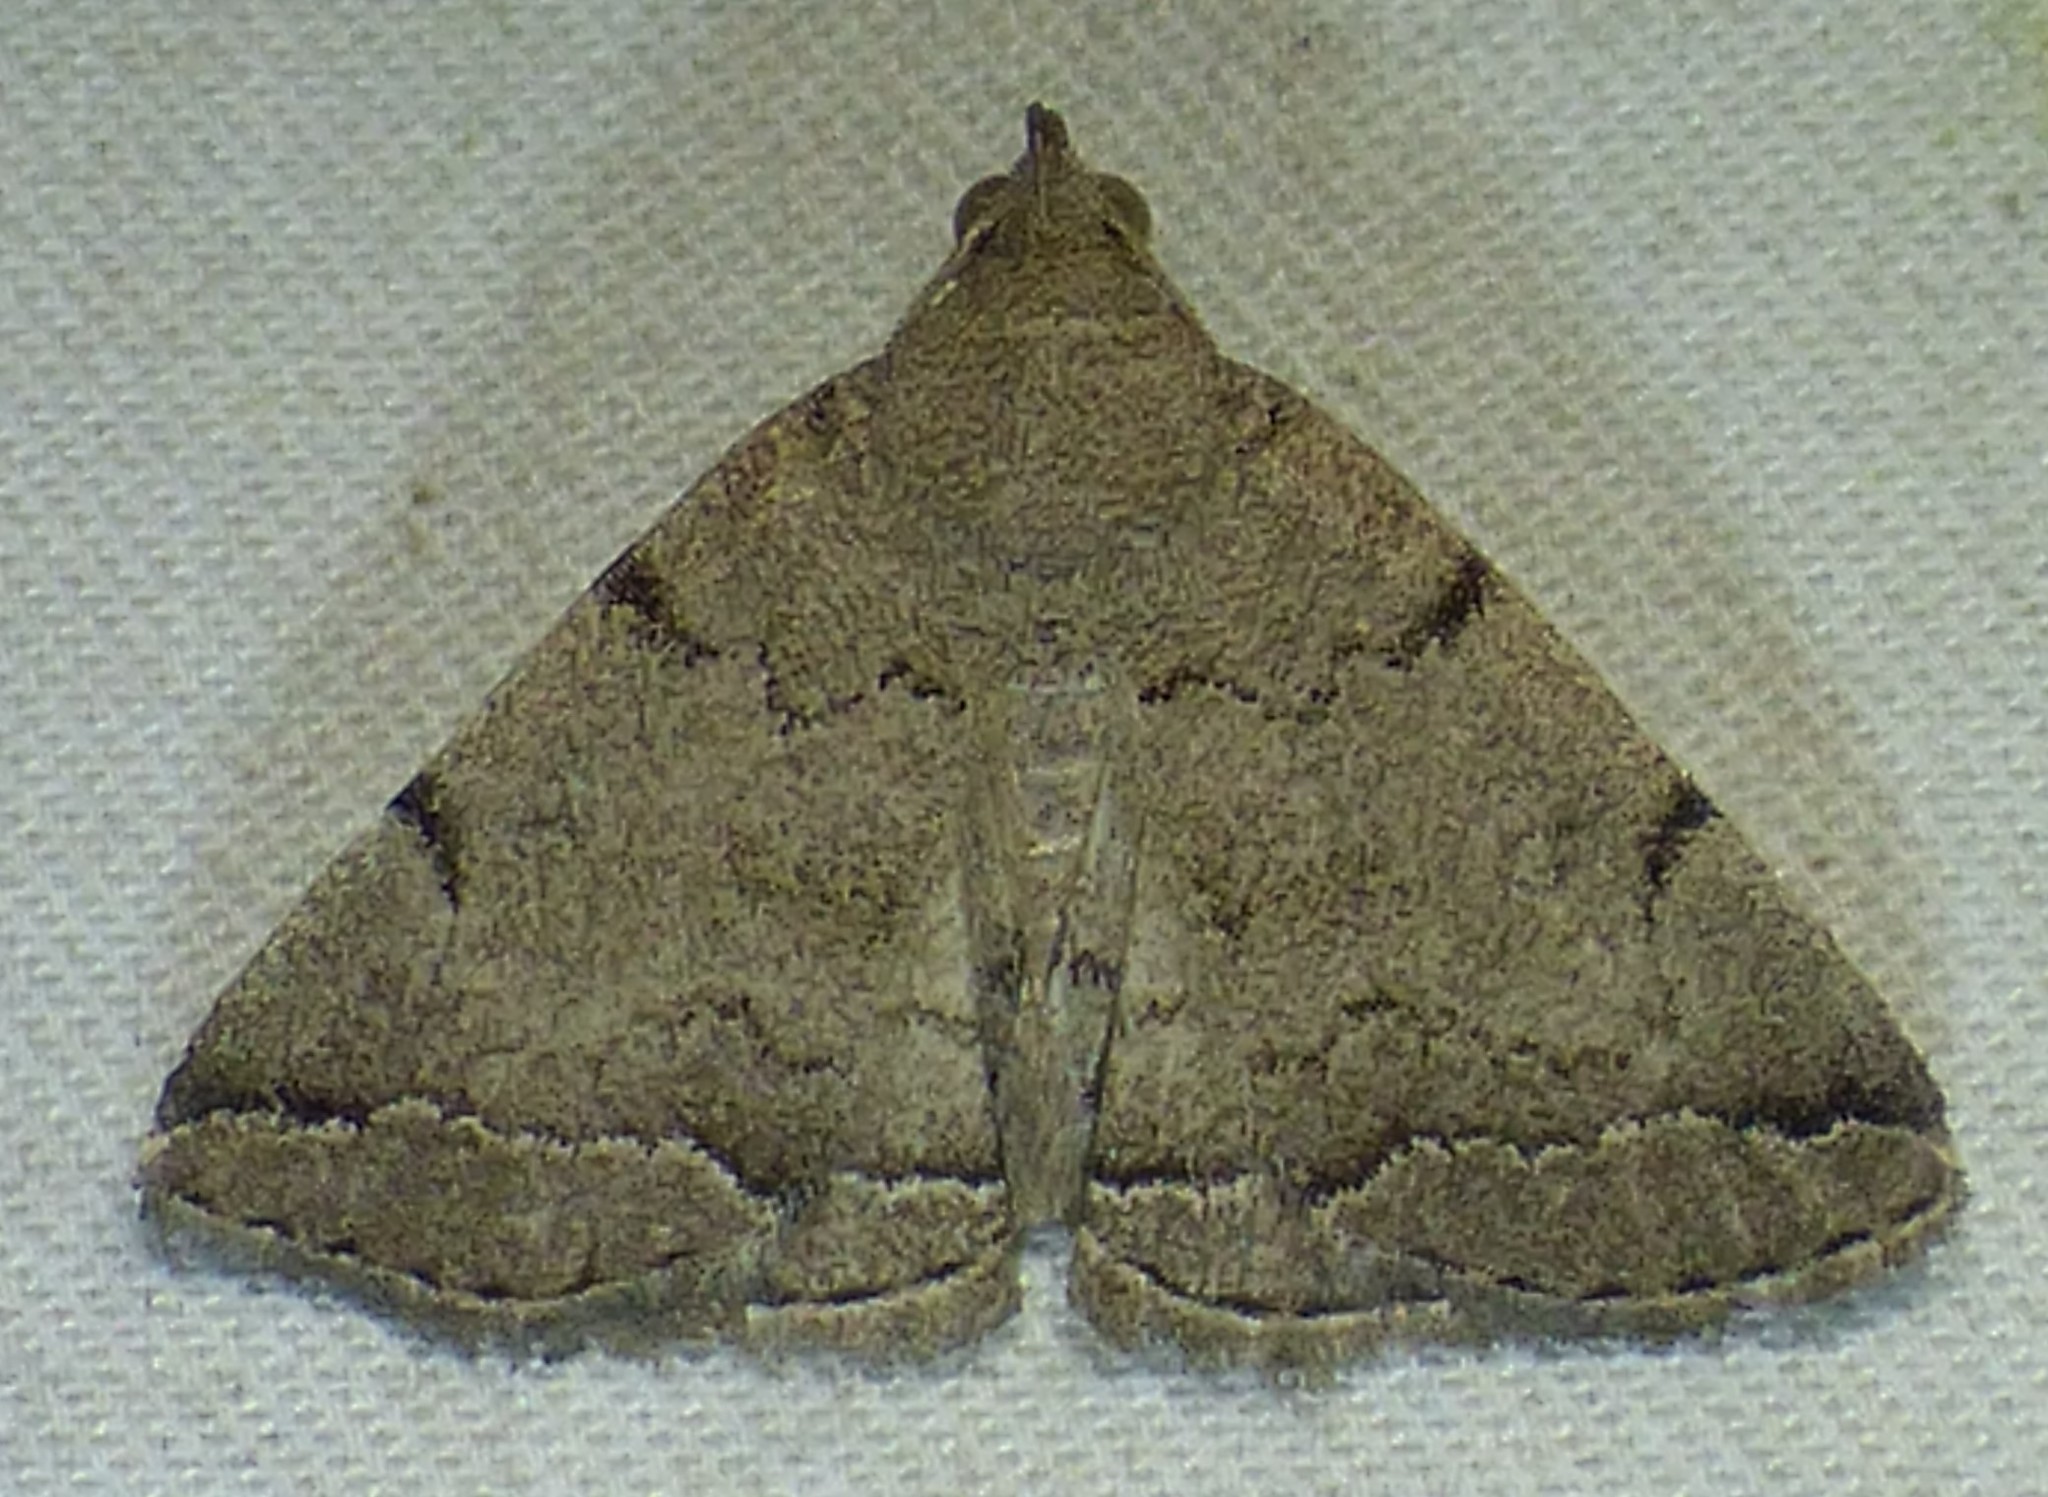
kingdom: Animalia
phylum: Arthropoda
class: Insecta
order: Lepidoptera
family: Erebidae
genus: Zanclognatha
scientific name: Zanclognatha theralis
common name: Flagged fan-foot
